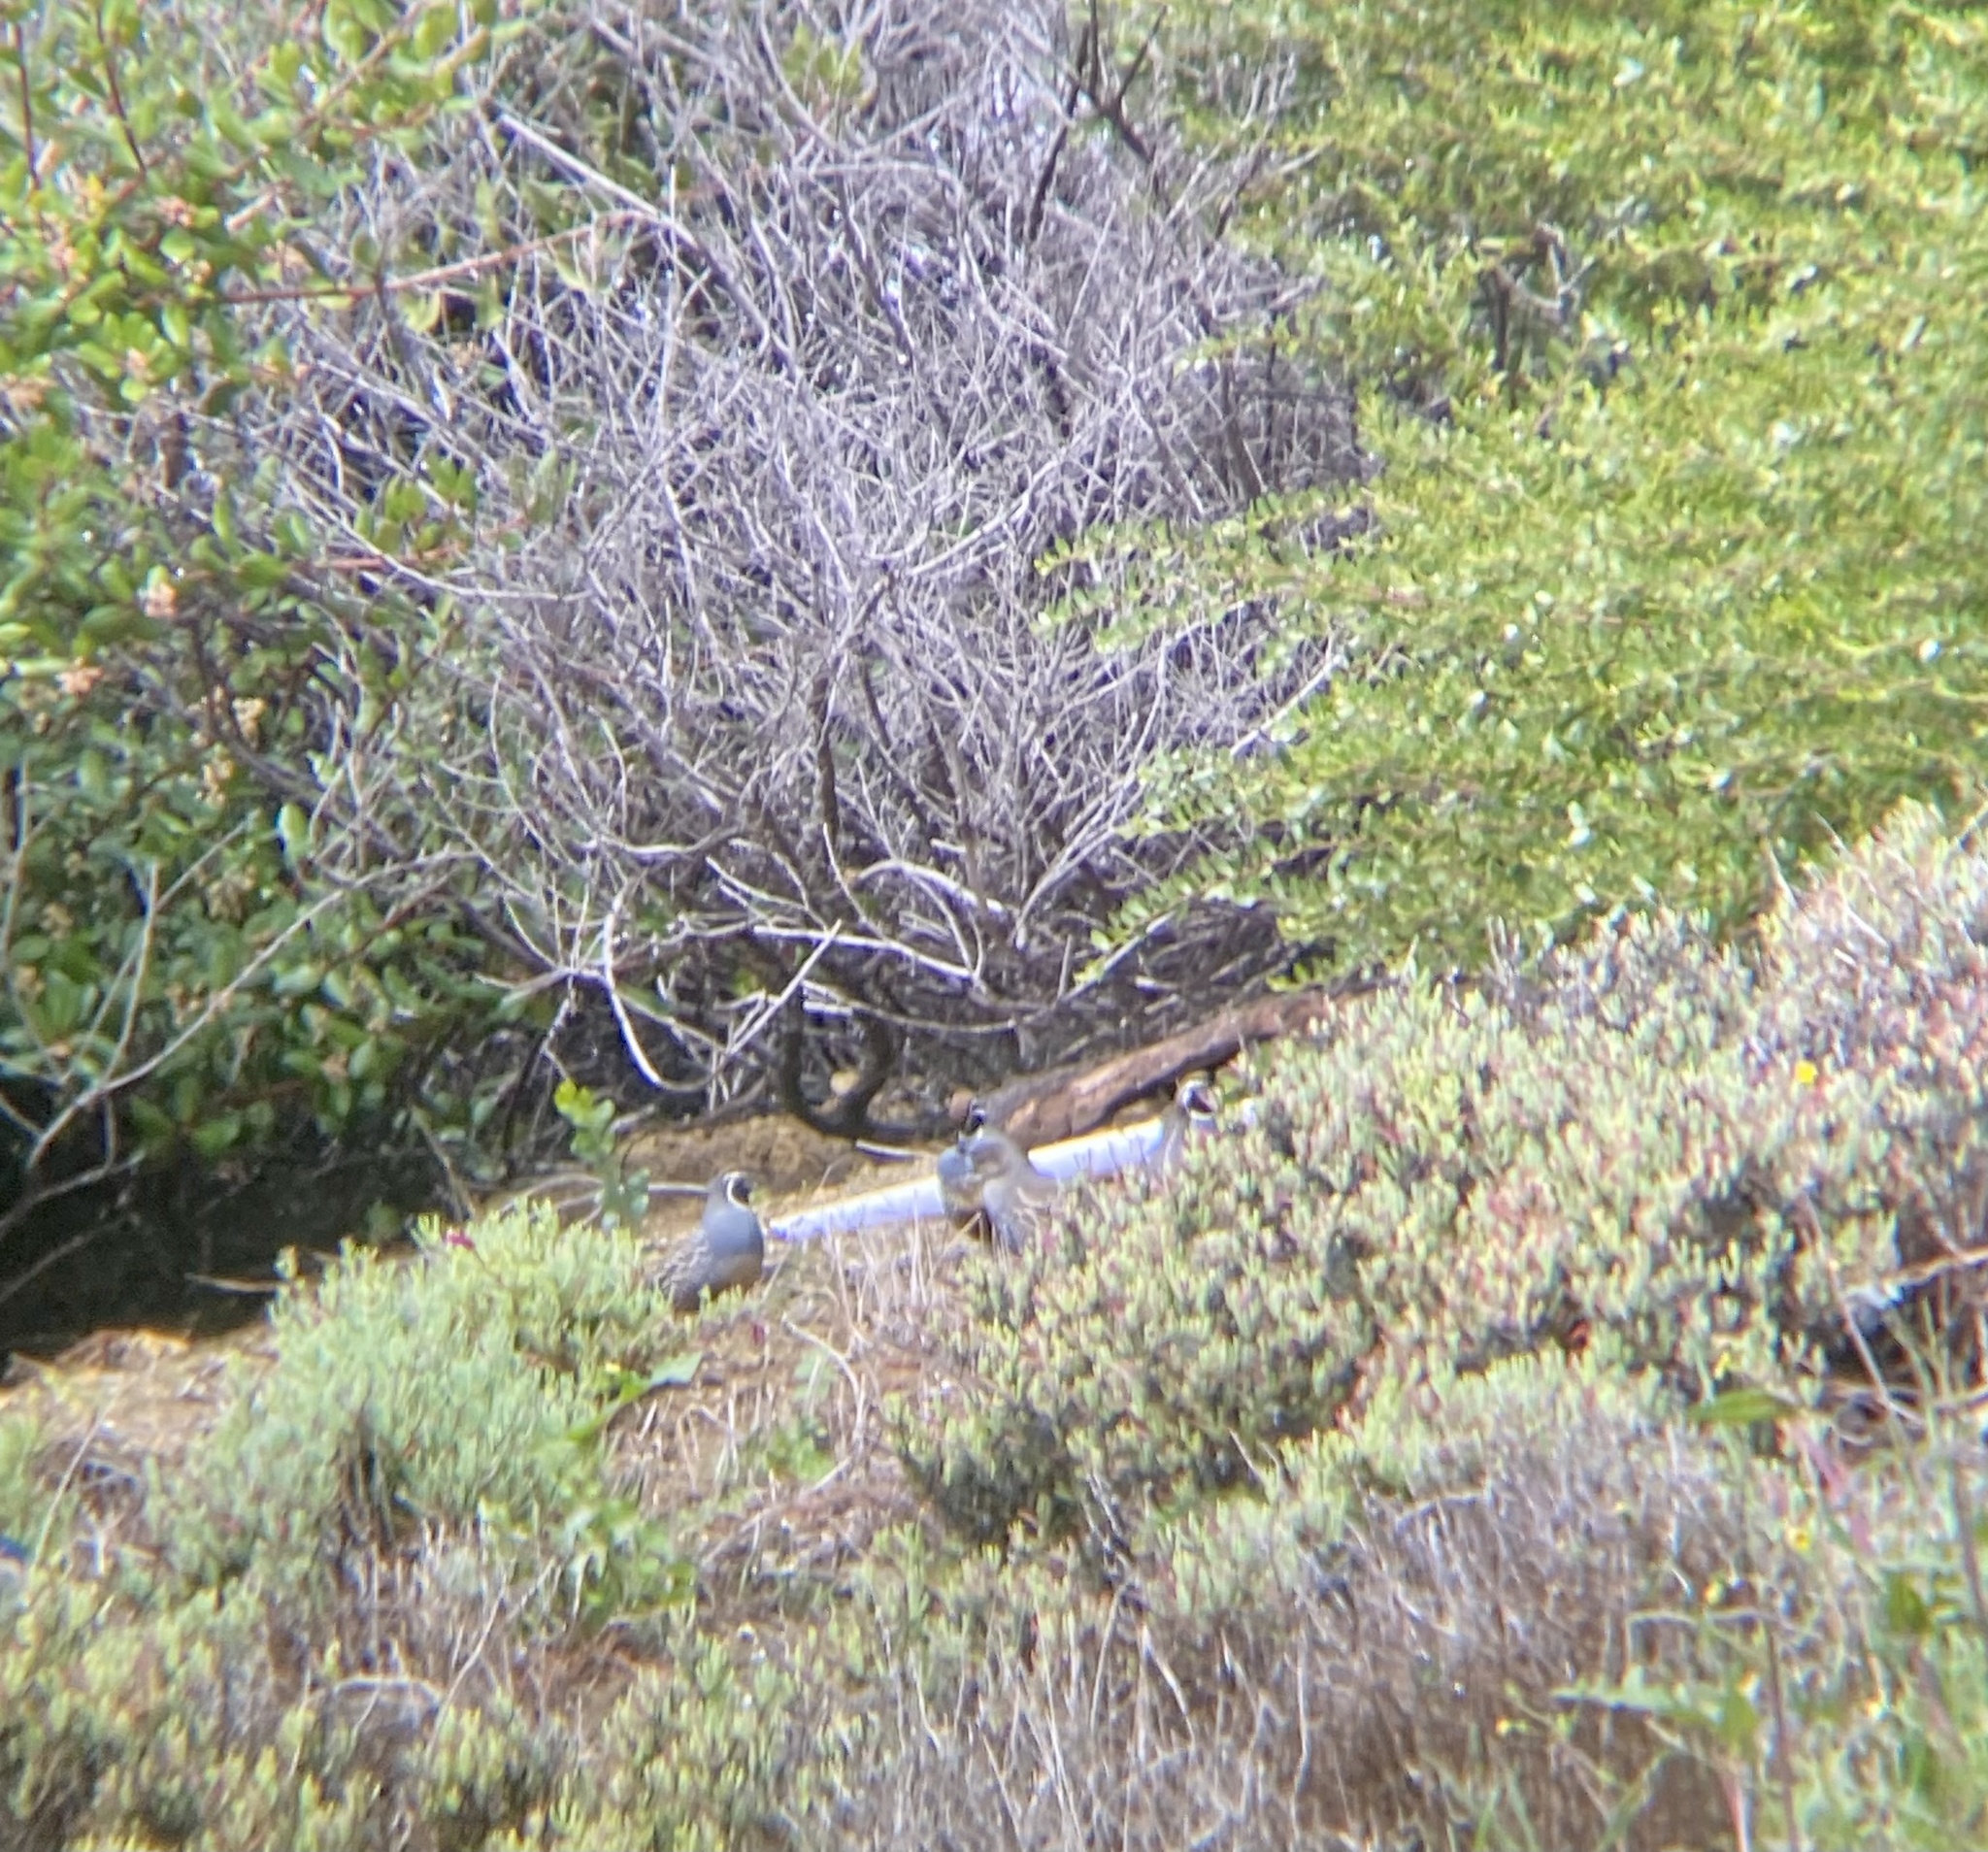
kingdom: Animalia
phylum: Chordata
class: Aves
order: Galliformes
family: Odontophoridae
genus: Callipepla
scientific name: Callipepla californica
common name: California quail
